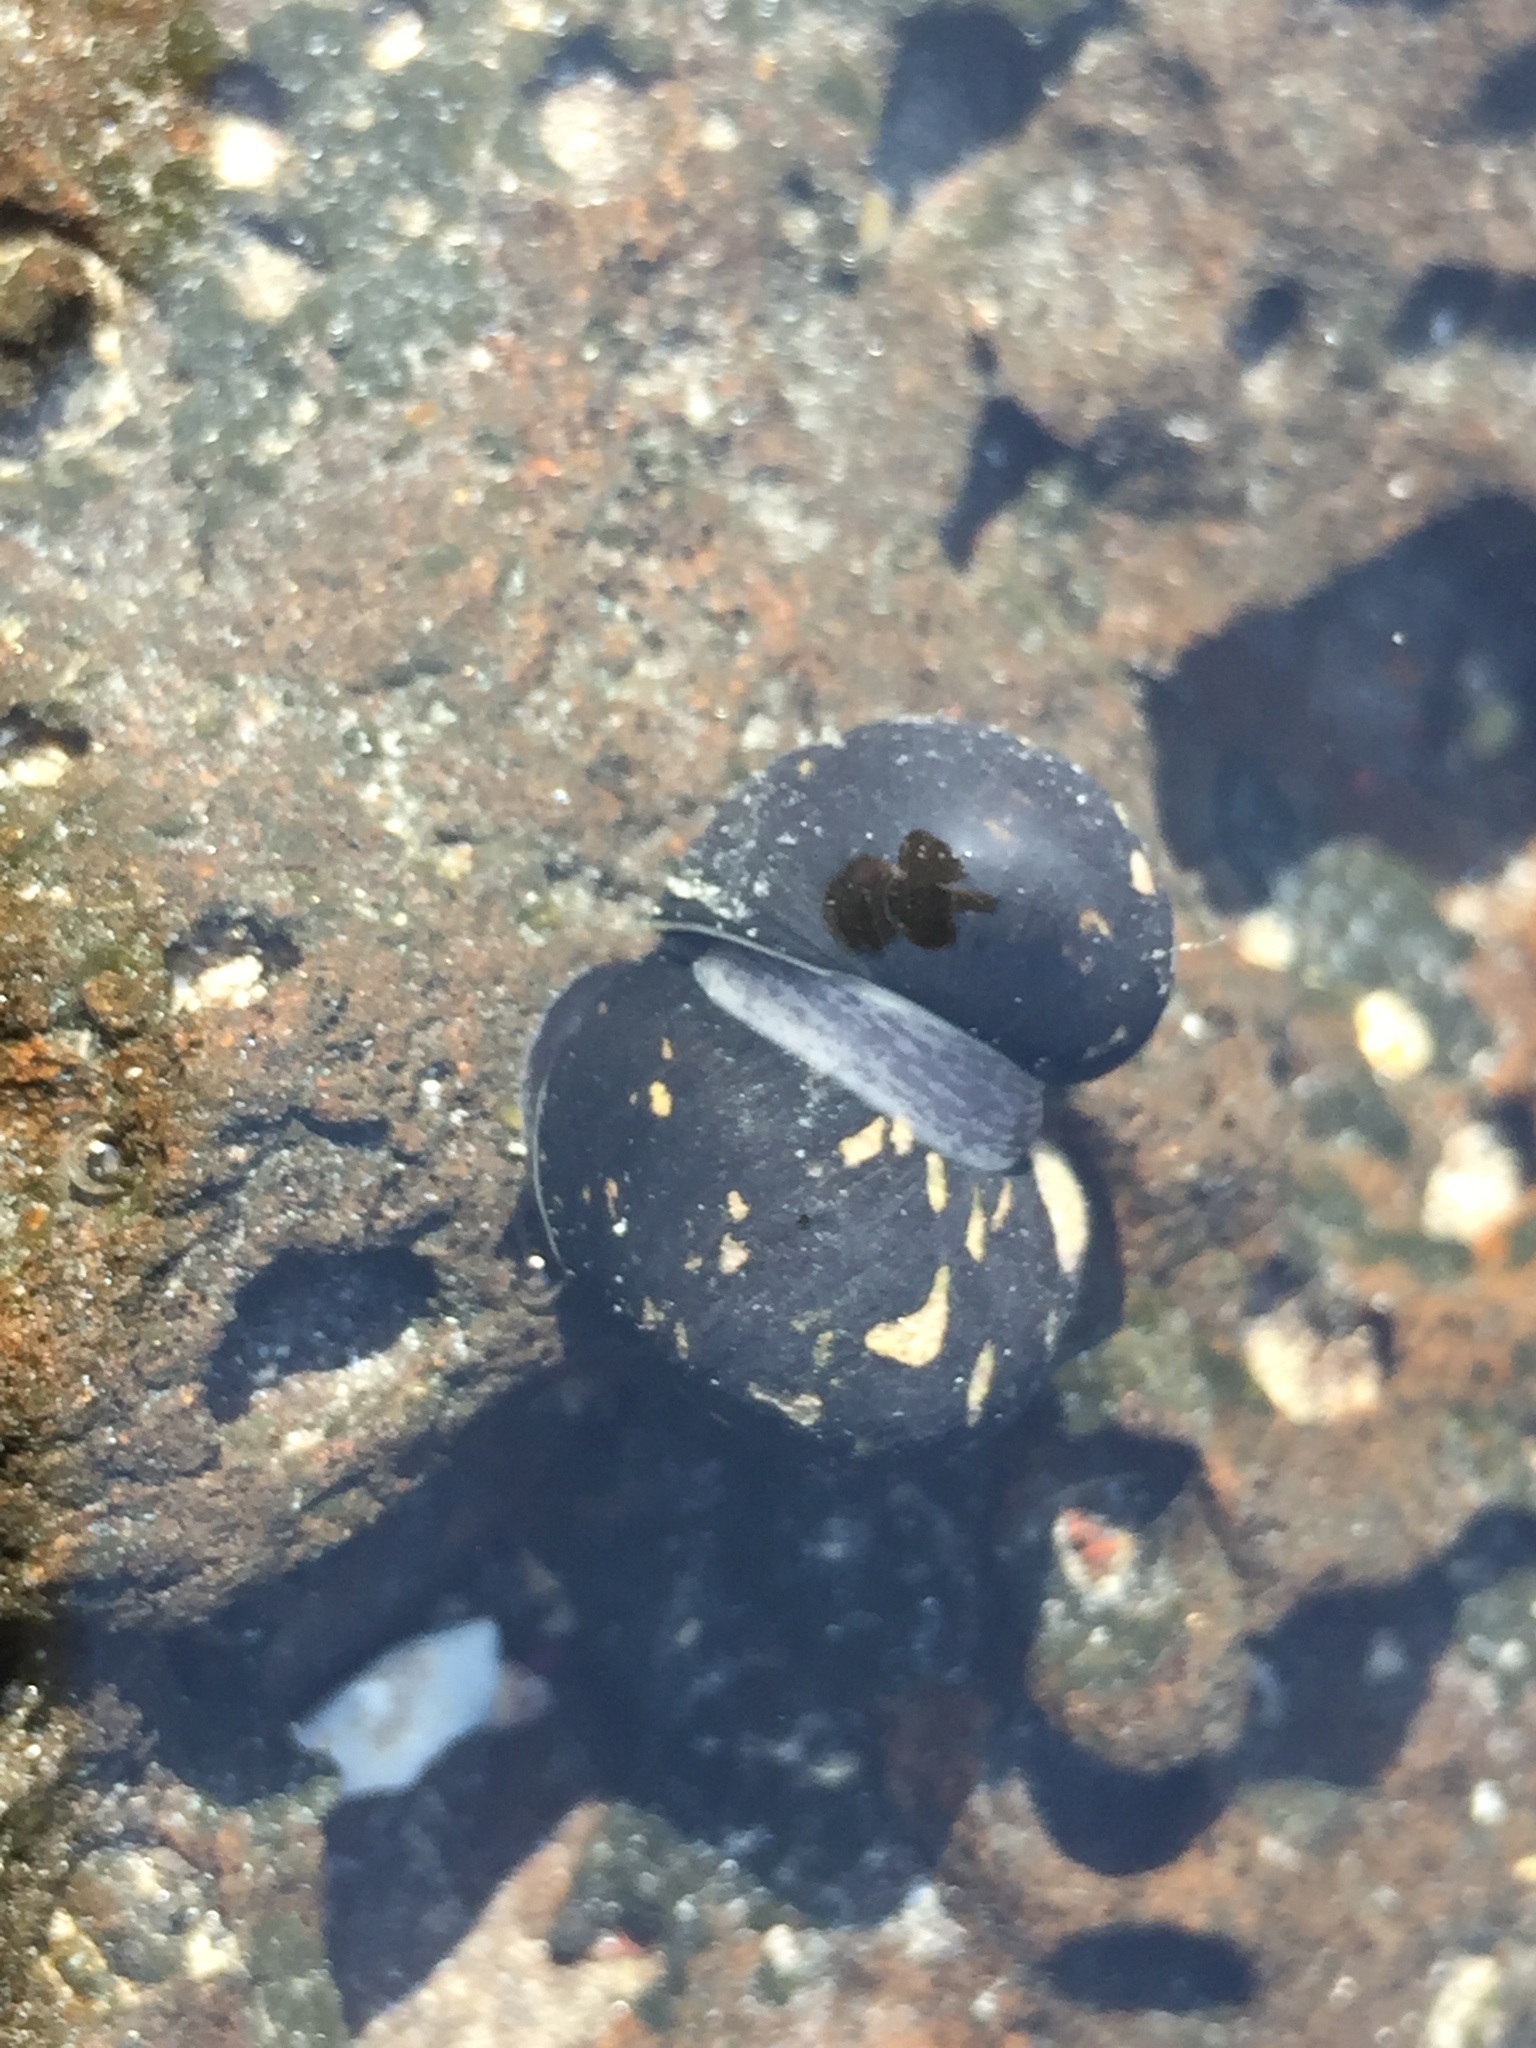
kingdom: Animalia
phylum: Mollusca
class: Gastropoda
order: Cycloneritida
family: Neritidae
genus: Nerita
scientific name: Nerita japonica
